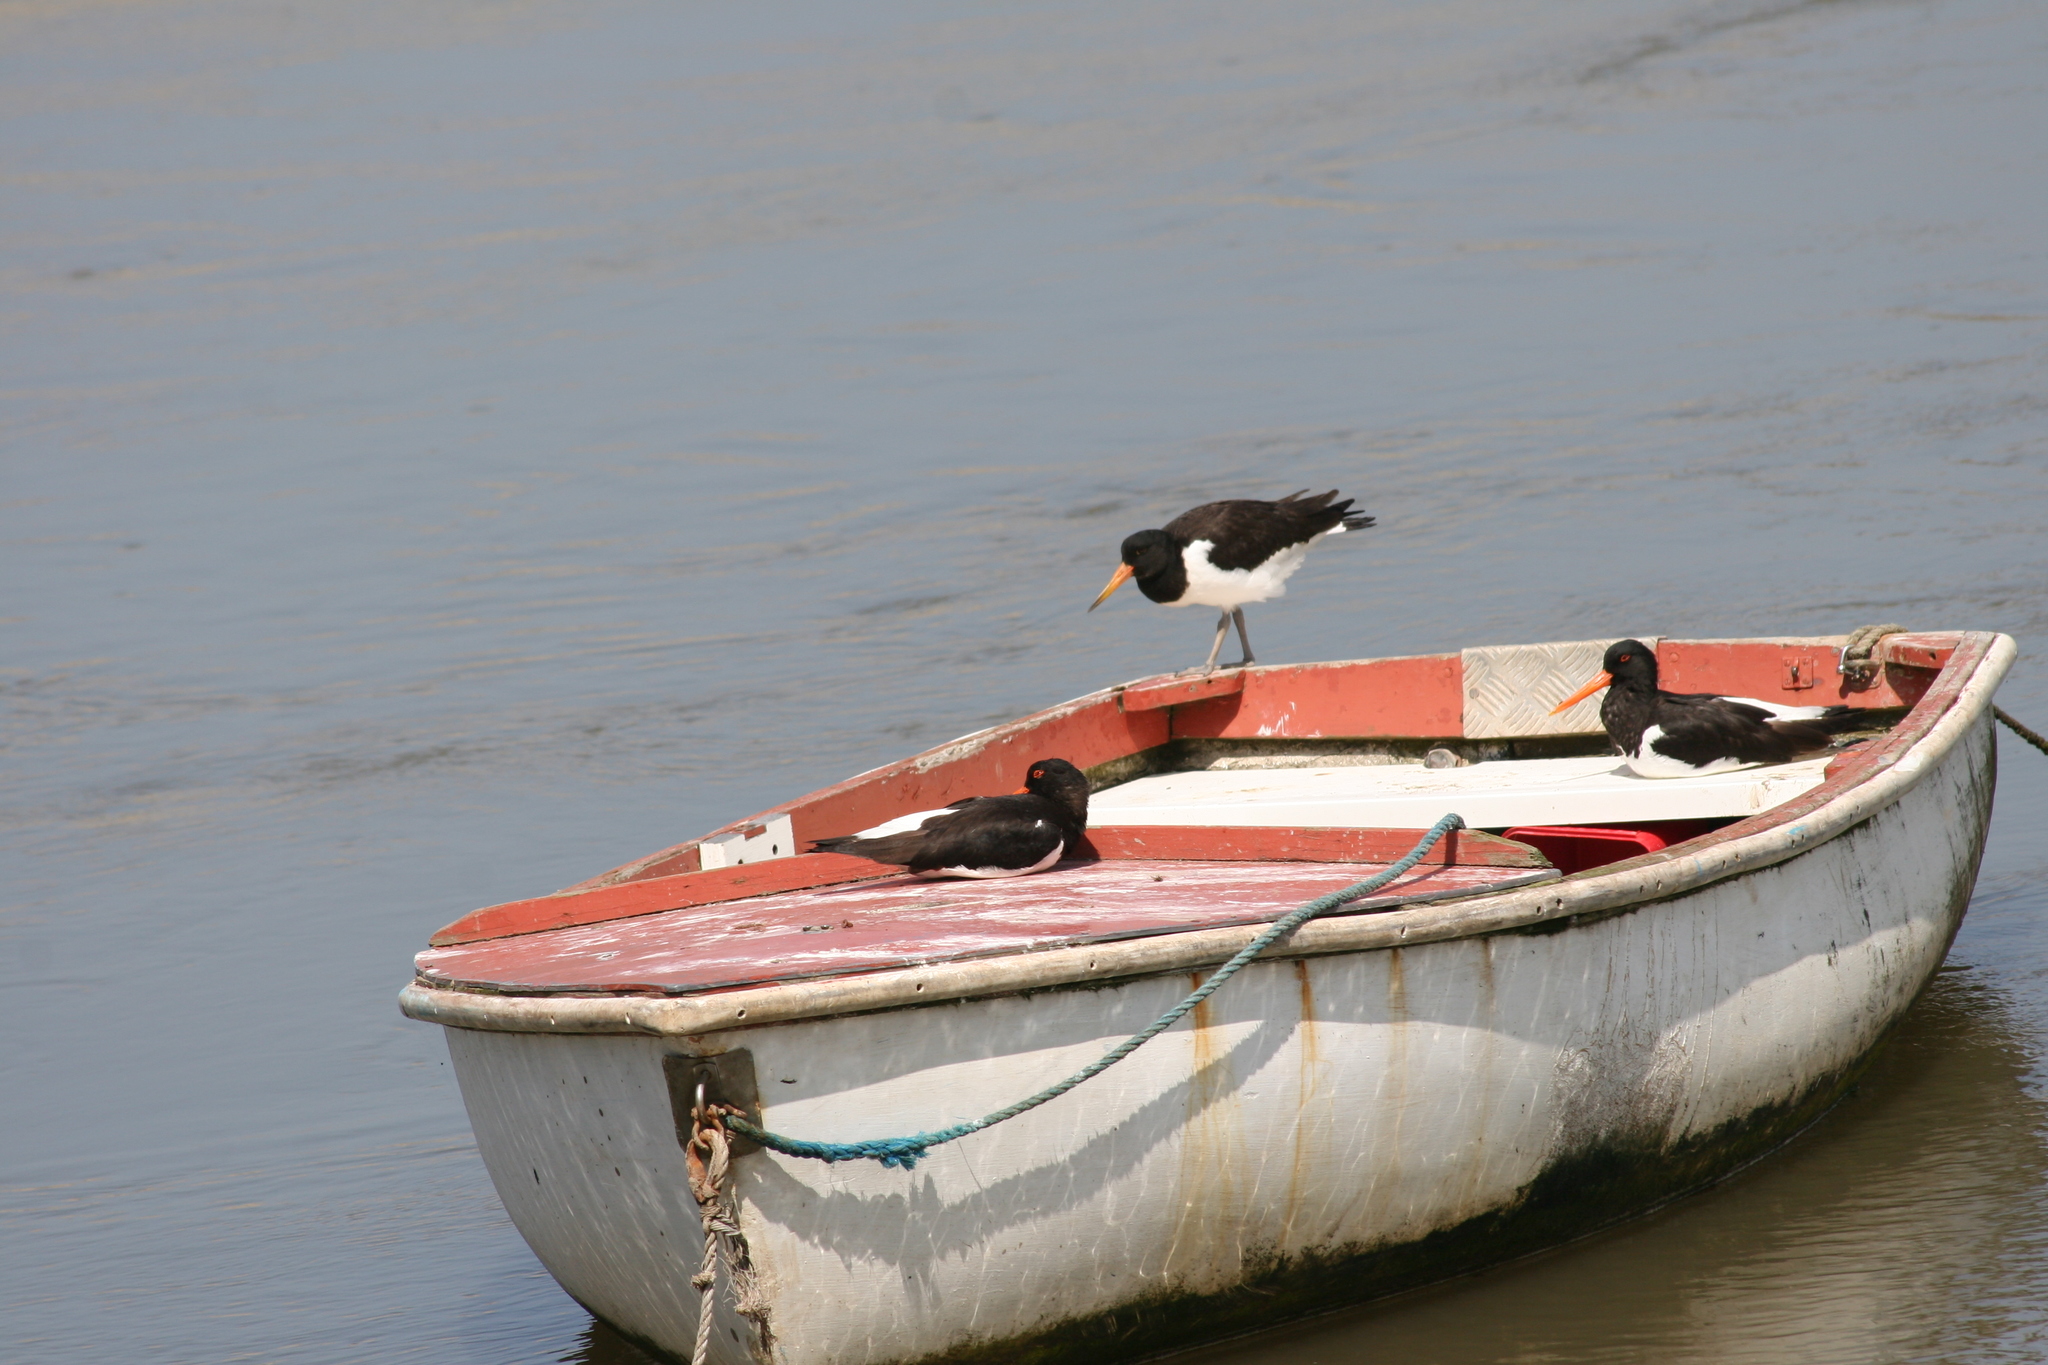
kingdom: Animalia
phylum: Chordata
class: Aves
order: Charadriiformes
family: Haematopodidae
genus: Haematopus
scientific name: Haematopus ostralegus
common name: Eurasian oystercatcher
